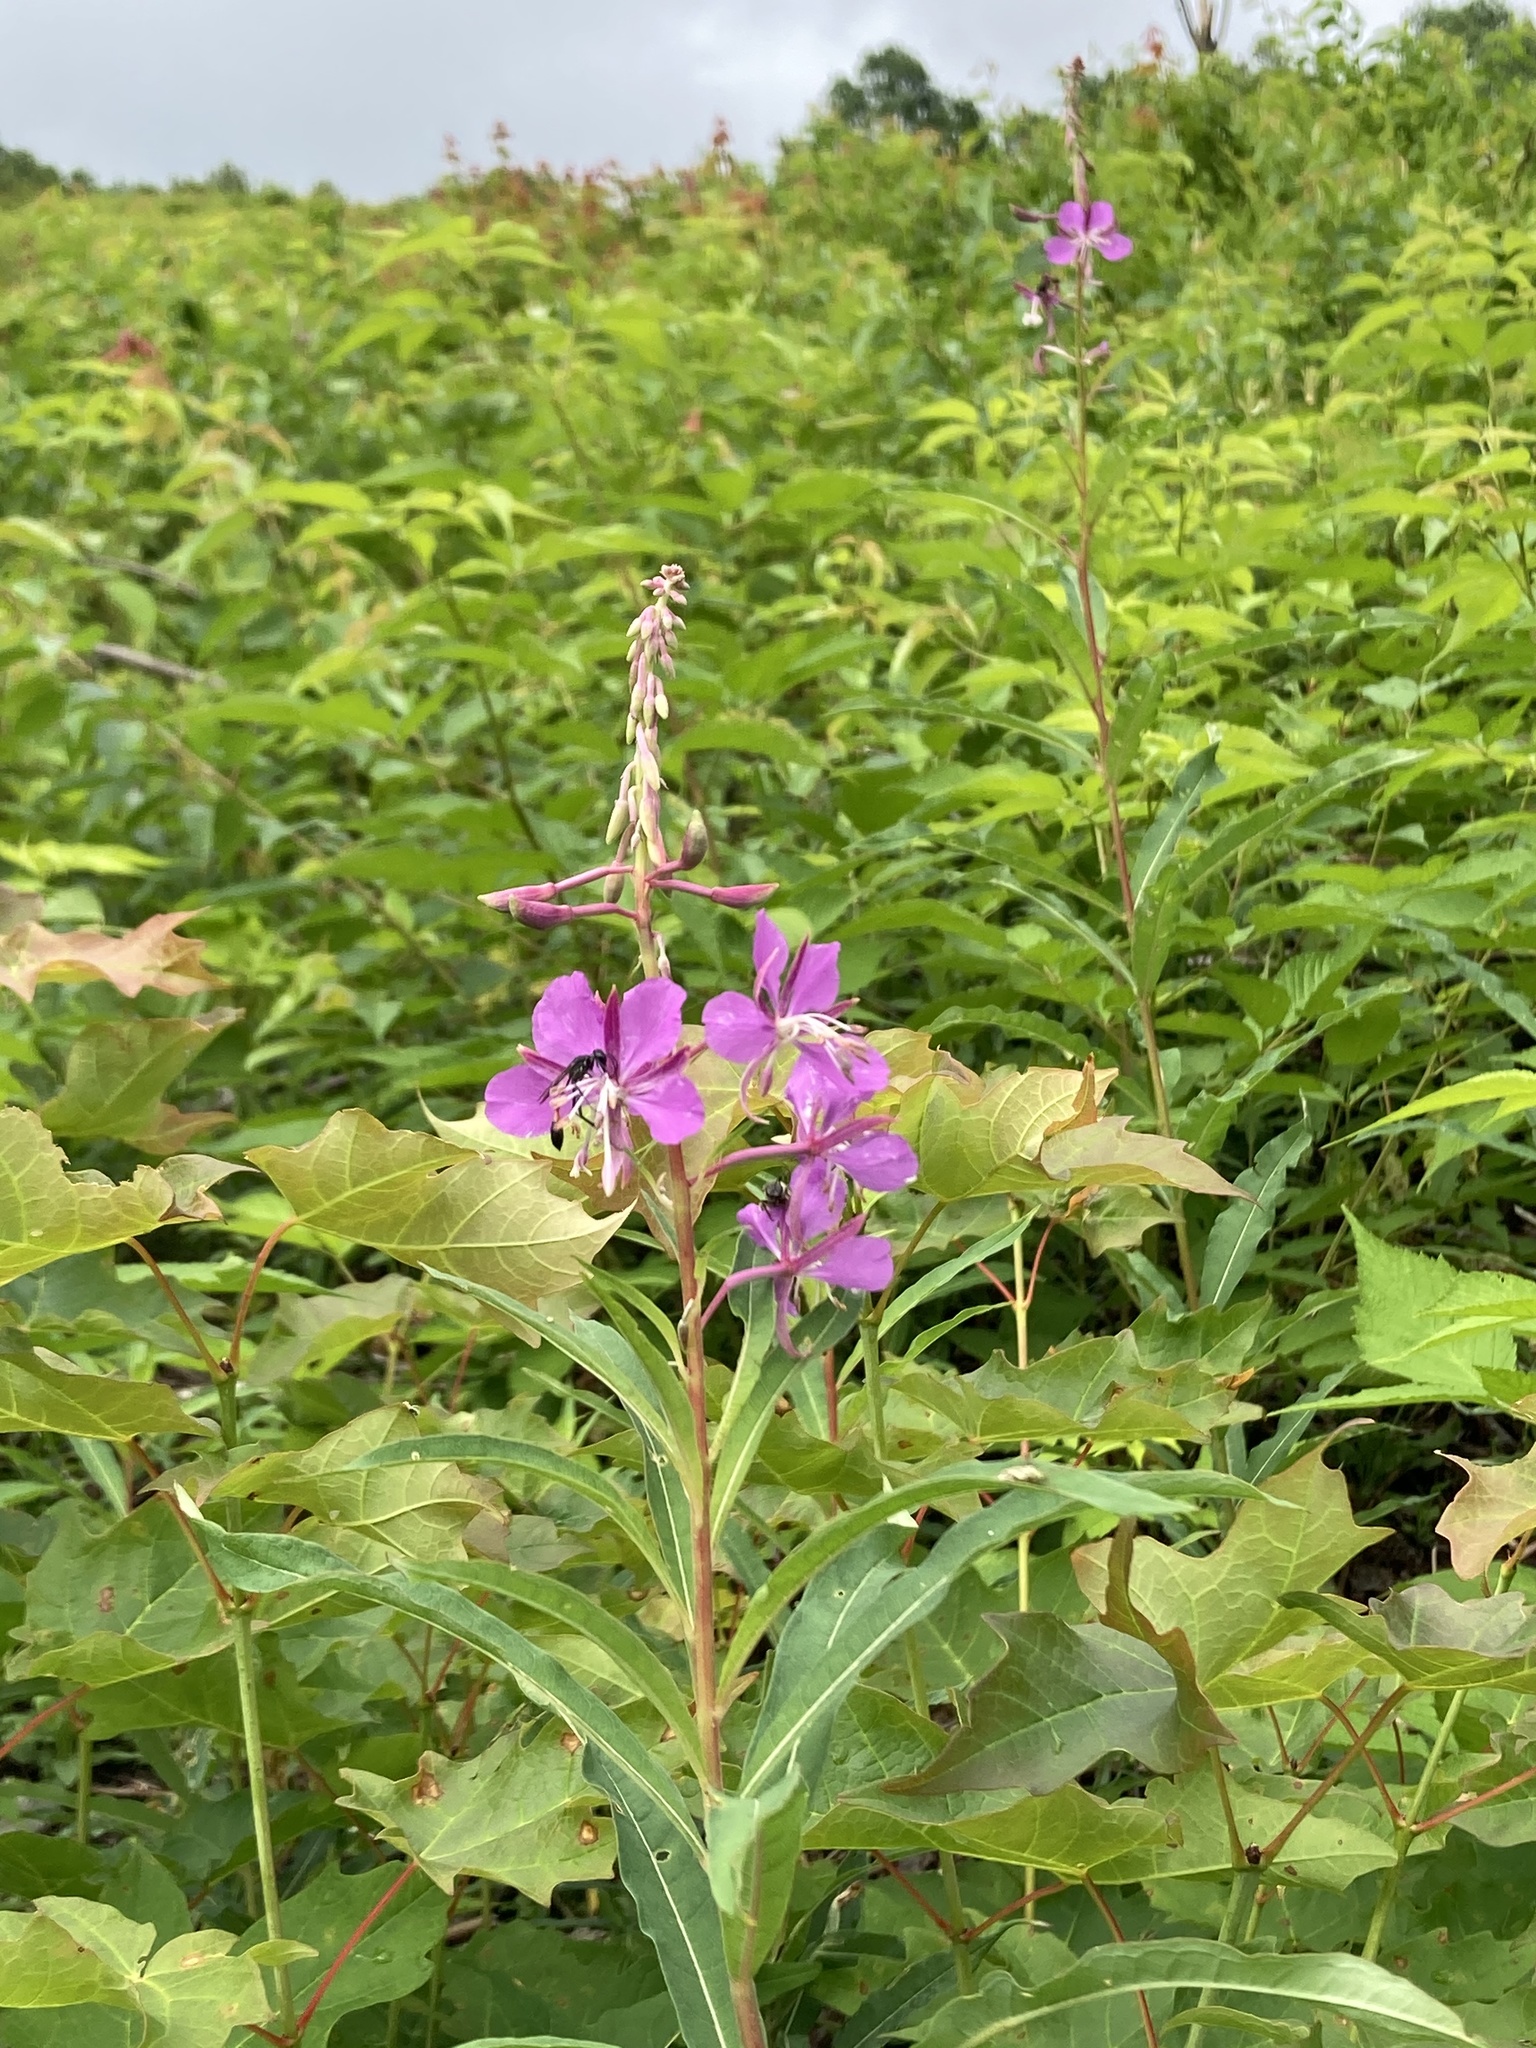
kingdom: Plantae
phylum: Tracheophyta
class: Magnoliopsida
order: Myrtales
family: Onagraceae
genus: Chamaenerion
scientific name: Chamaenerion angustifolium
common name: Fireweed
